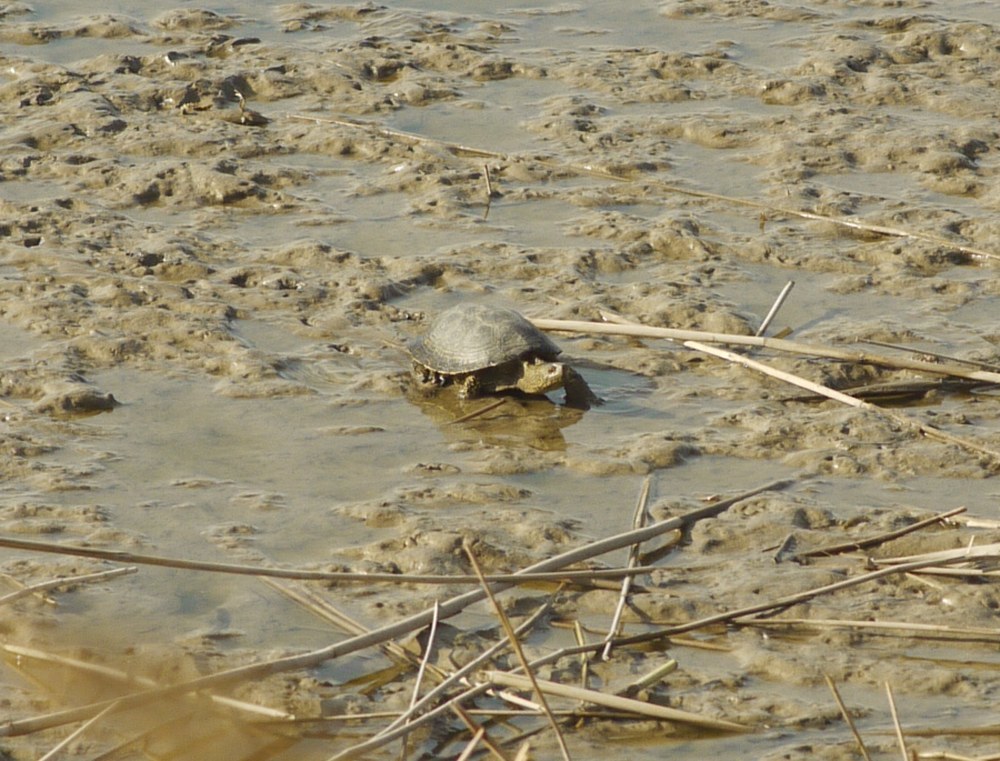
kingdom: Animalia
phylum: Chordata
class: Testudines
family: Emydidae
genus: Emys
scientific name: Emys orbicularis
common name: European pond turtle
